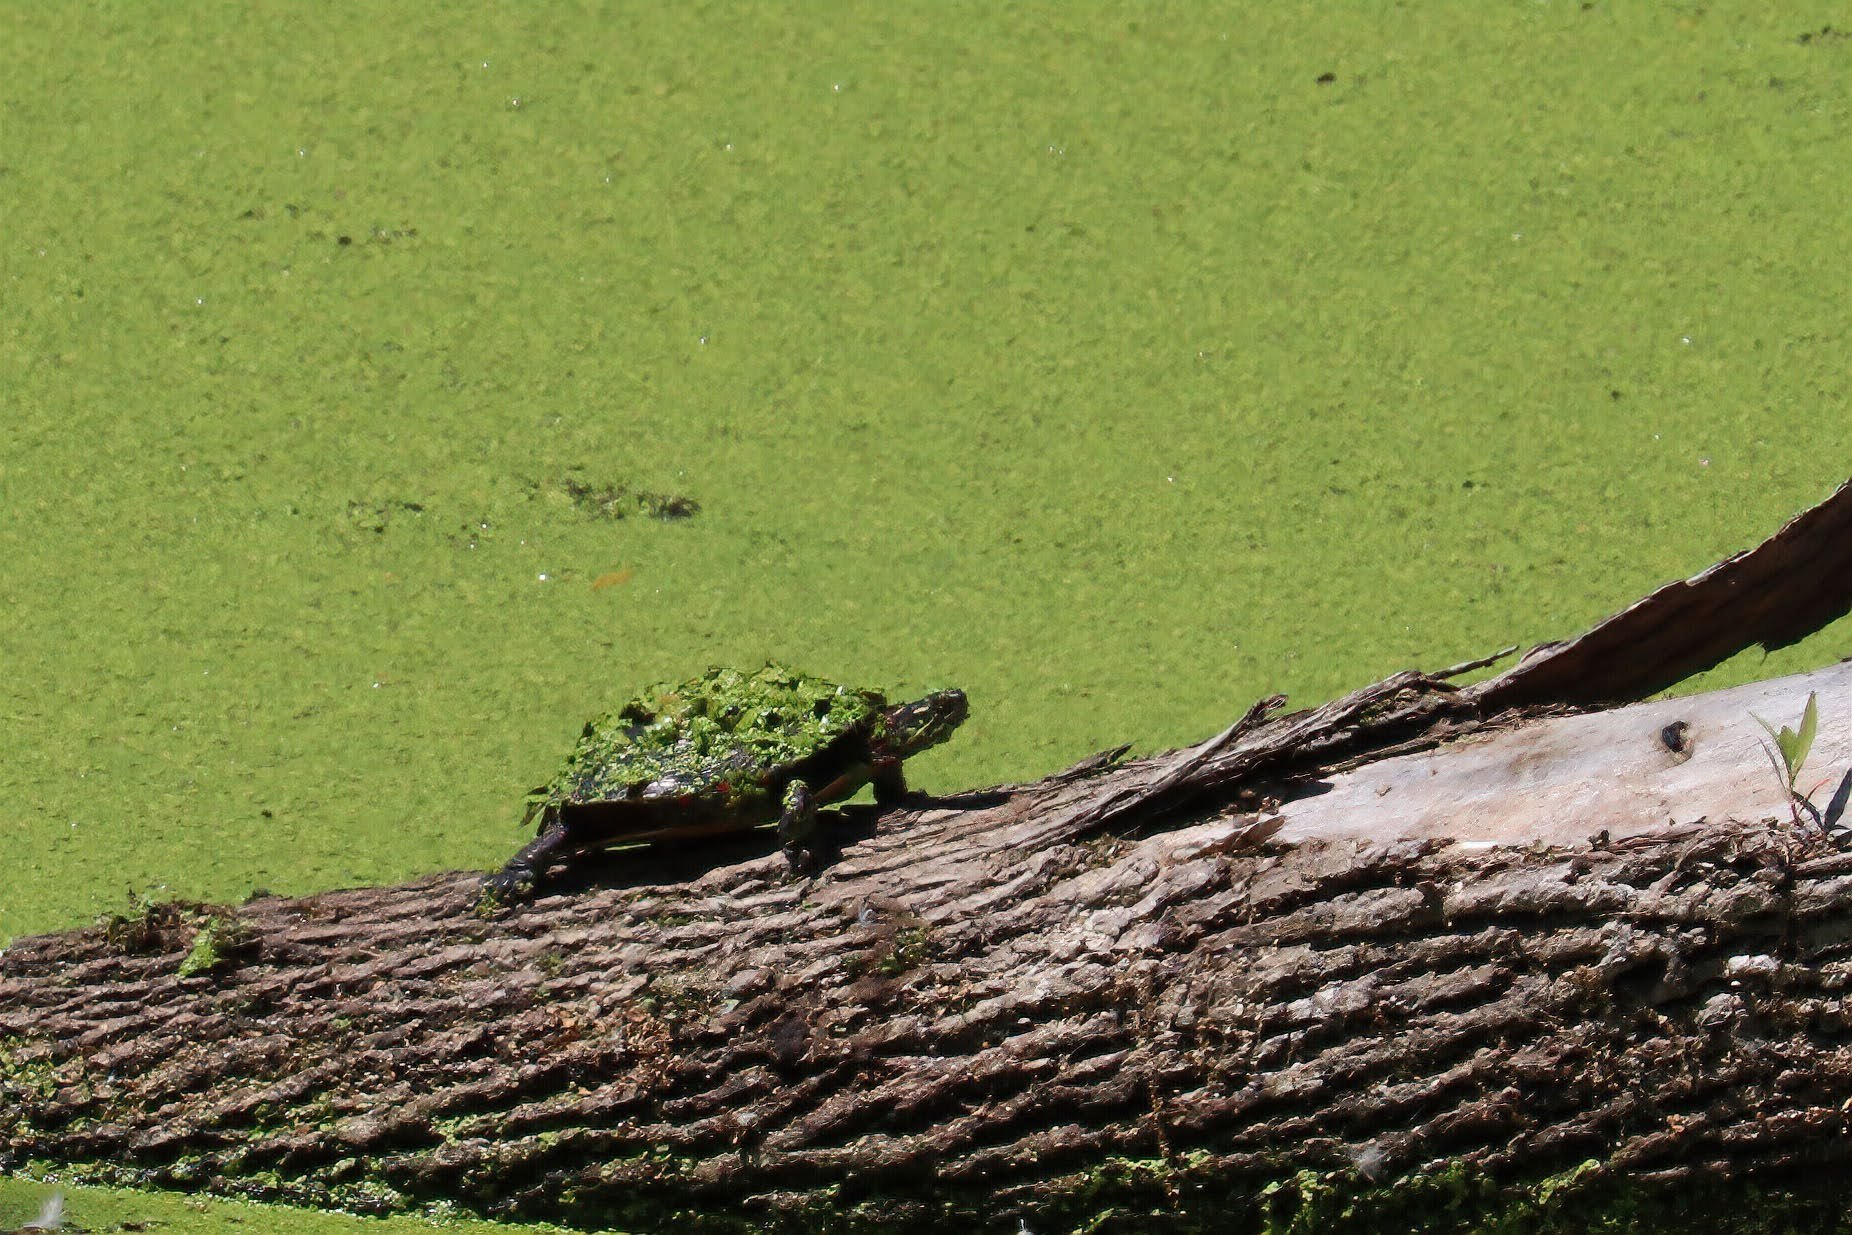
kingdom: Animalia
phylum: Chordata
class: Testudines
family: Emydidae
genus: Chrysemys
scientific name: Chrysemys picta
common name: Painted turtle
